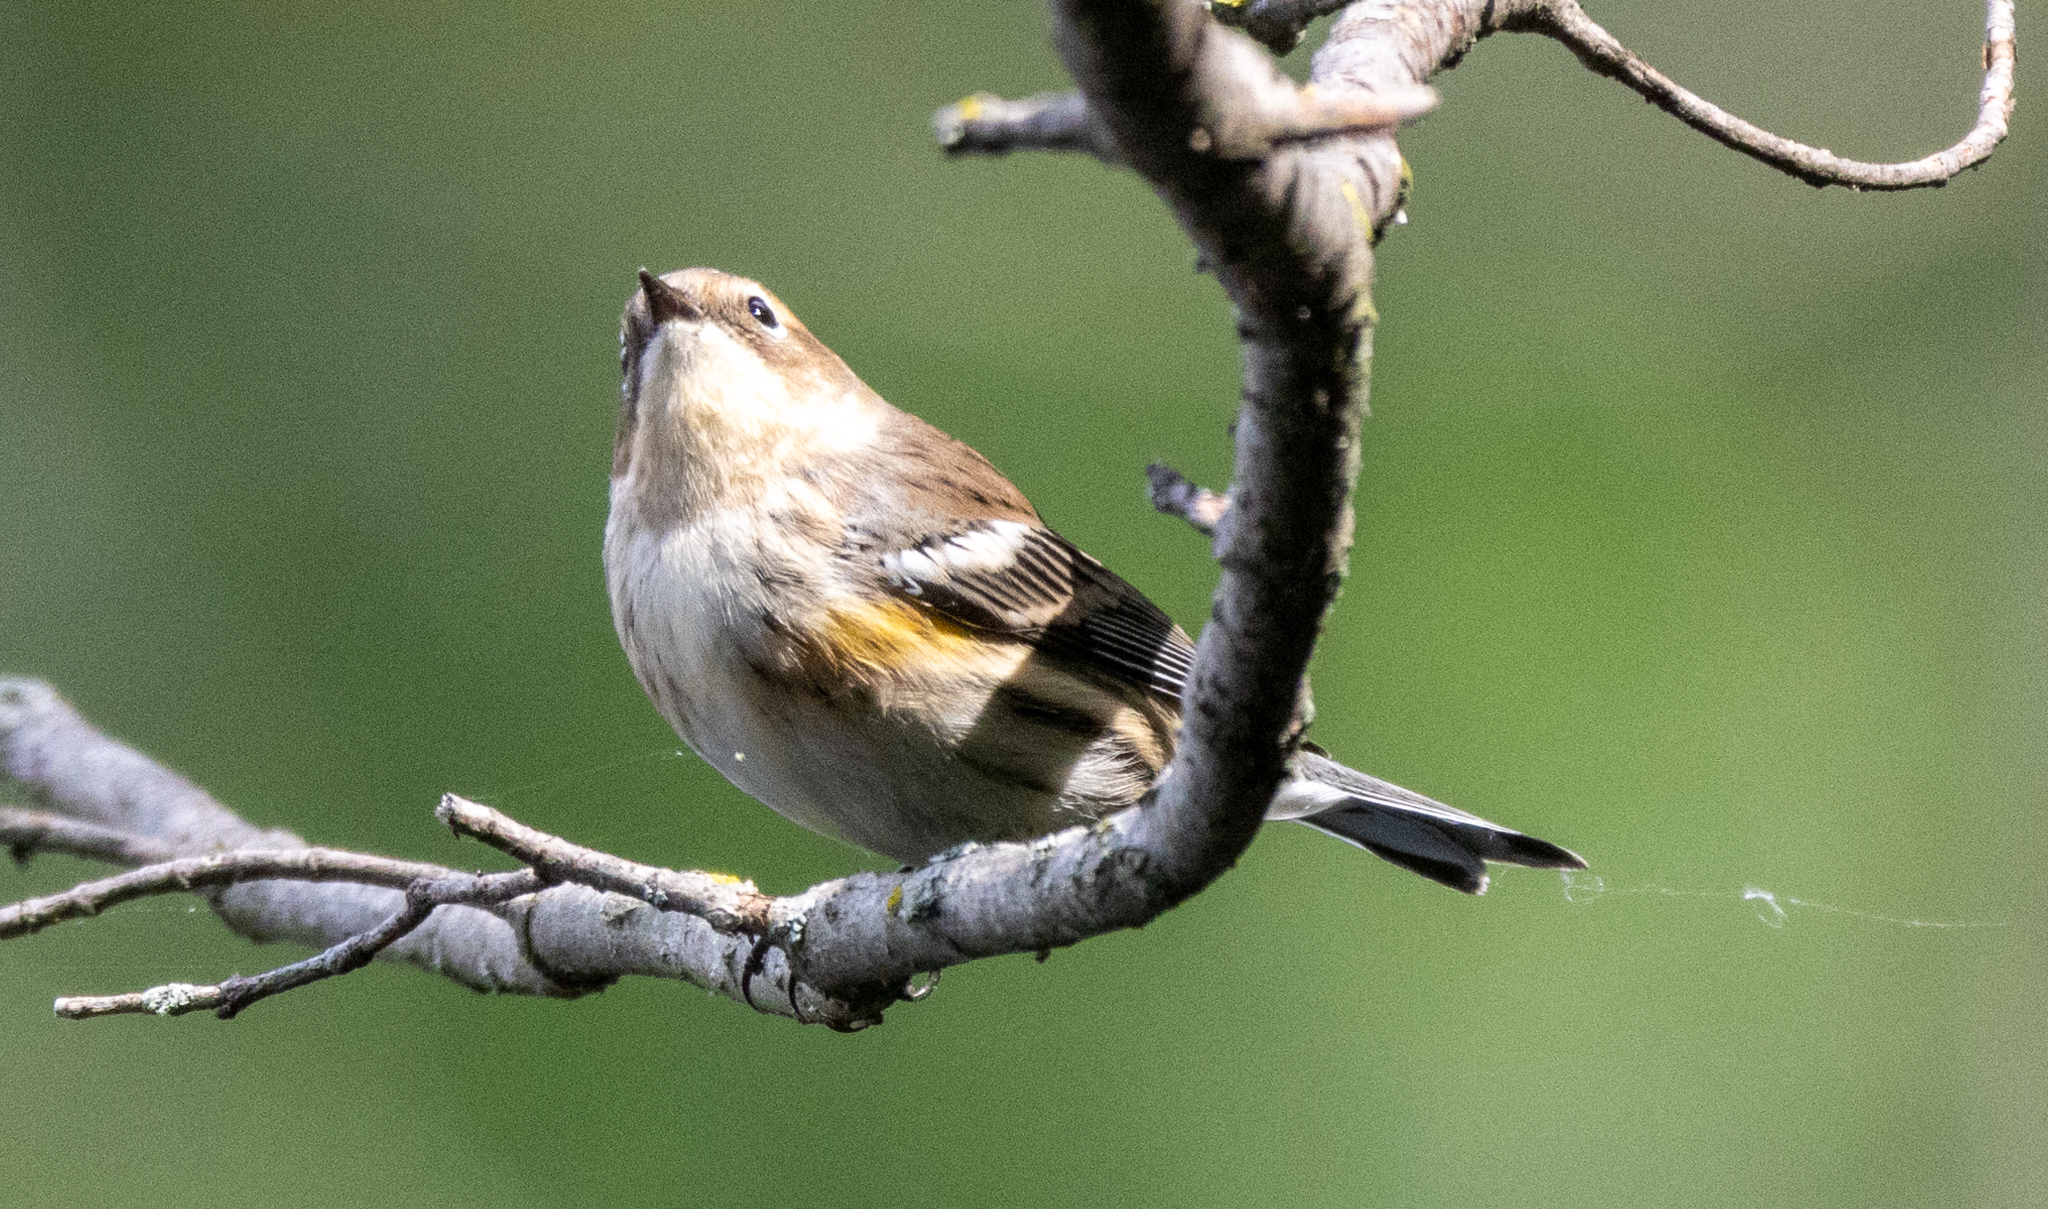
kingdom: Animalia
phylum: Chordata
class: Aves
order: Passeriformes
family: Parulidae
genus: Setophaga
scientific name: Setophaga coronata
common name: Myrtle warbler
